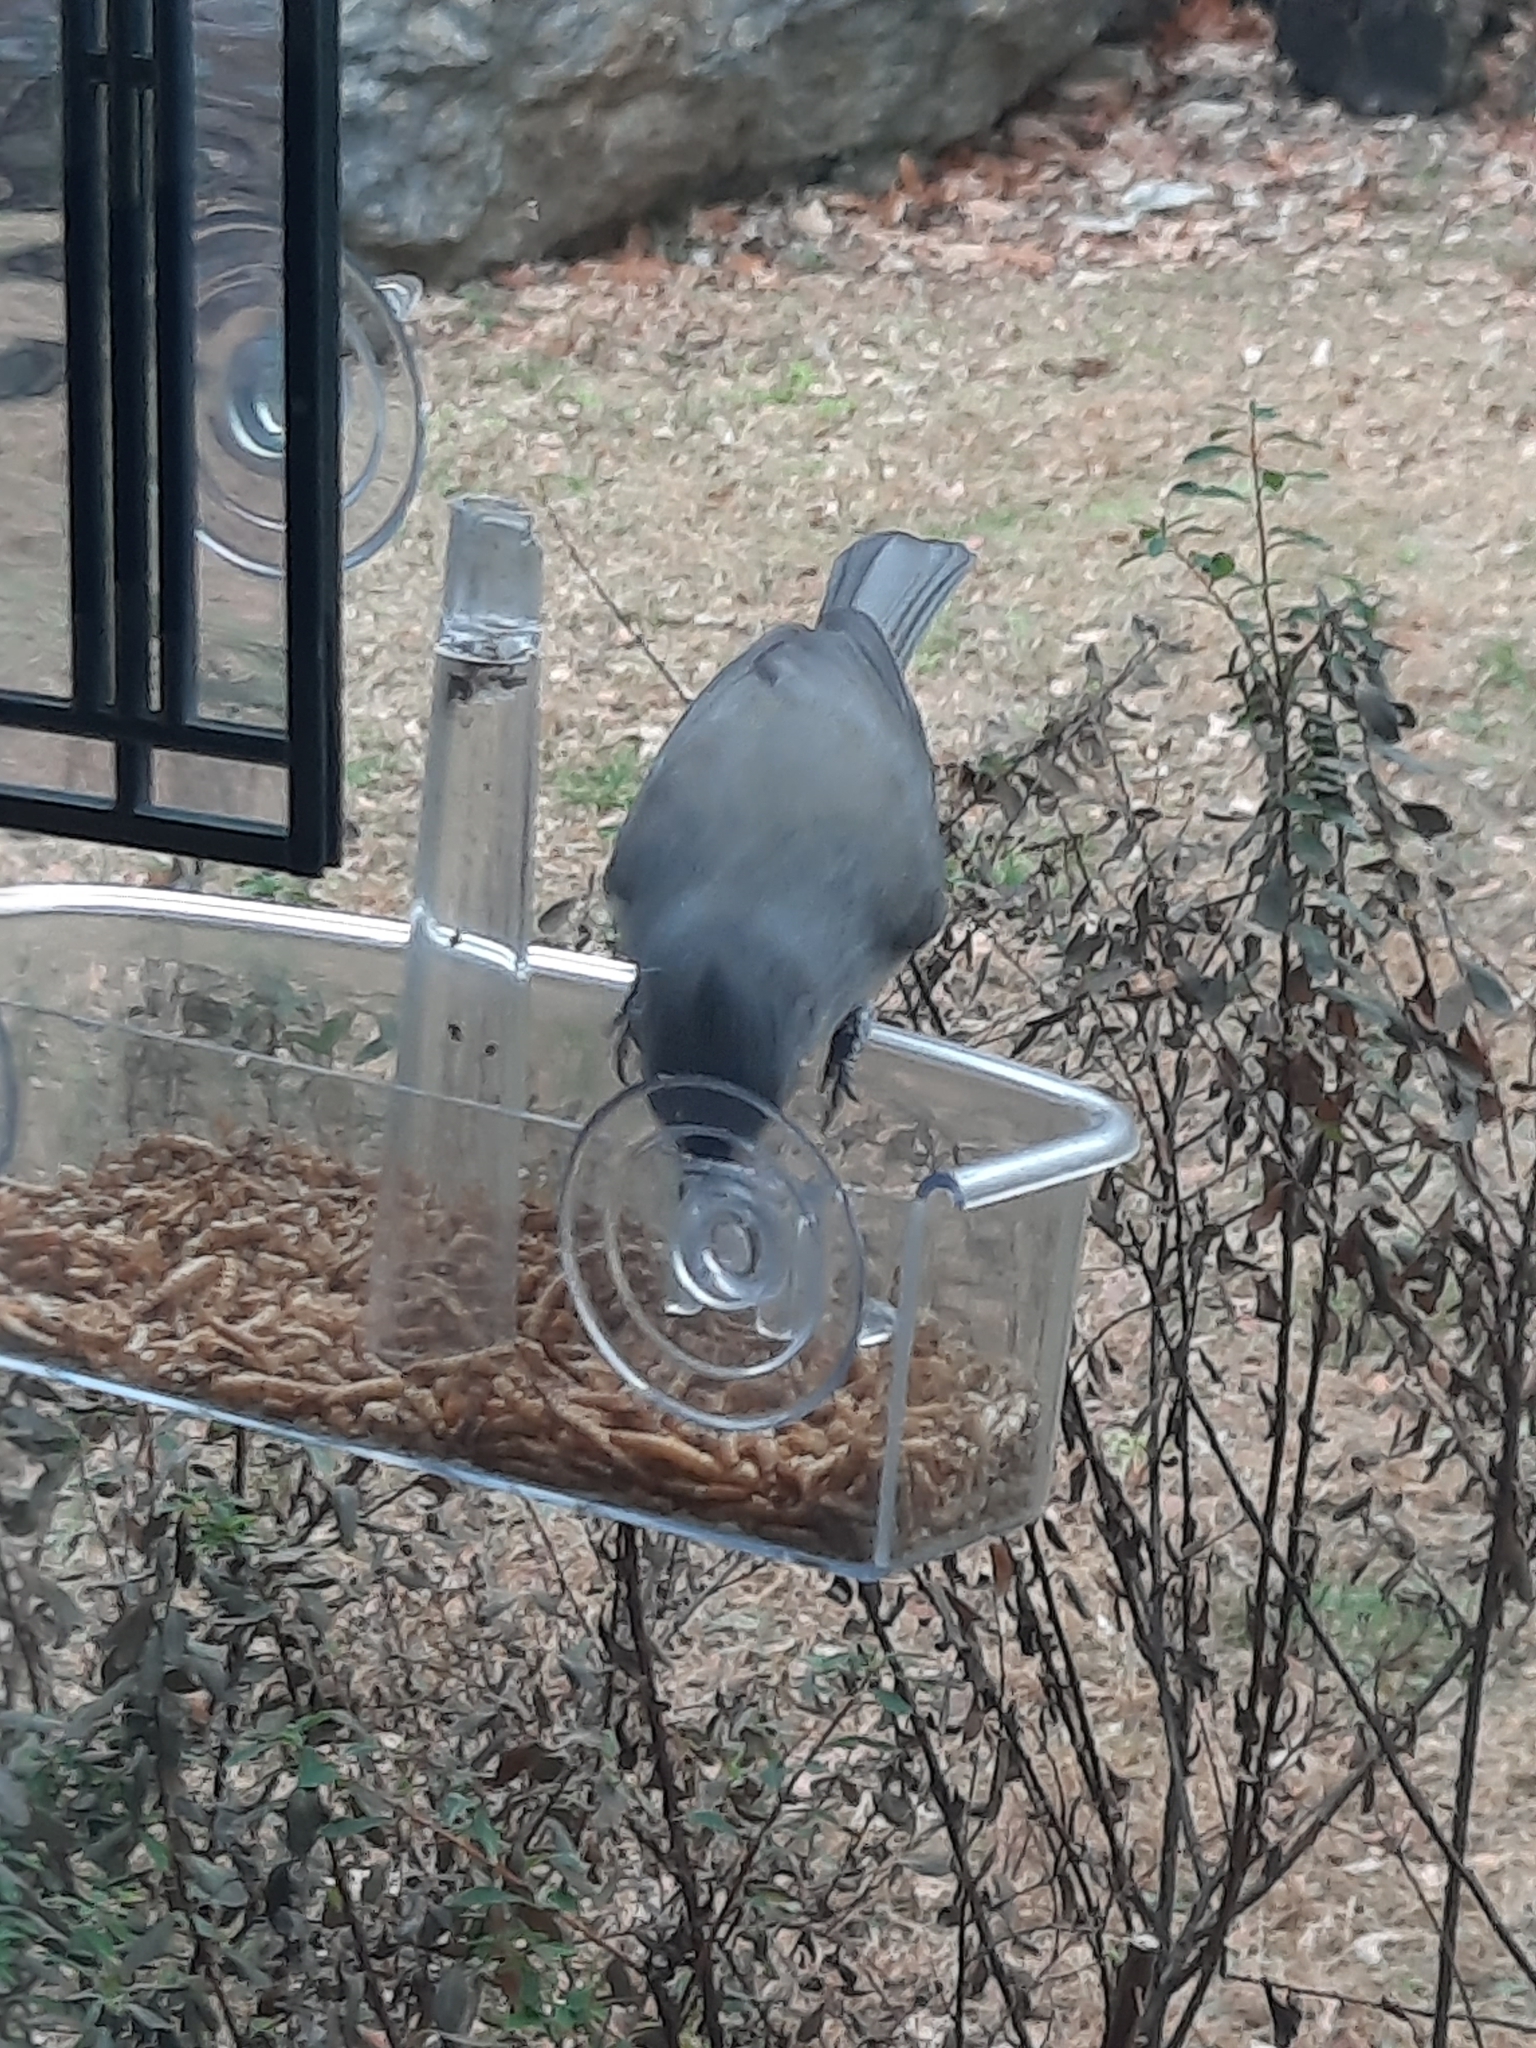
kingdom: Animalia
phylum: Chordata
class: Aves
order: Passeriformes
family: Paridae
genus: Baeolophus
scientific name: Baeolophus bicolor
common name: Tufted titmouse
